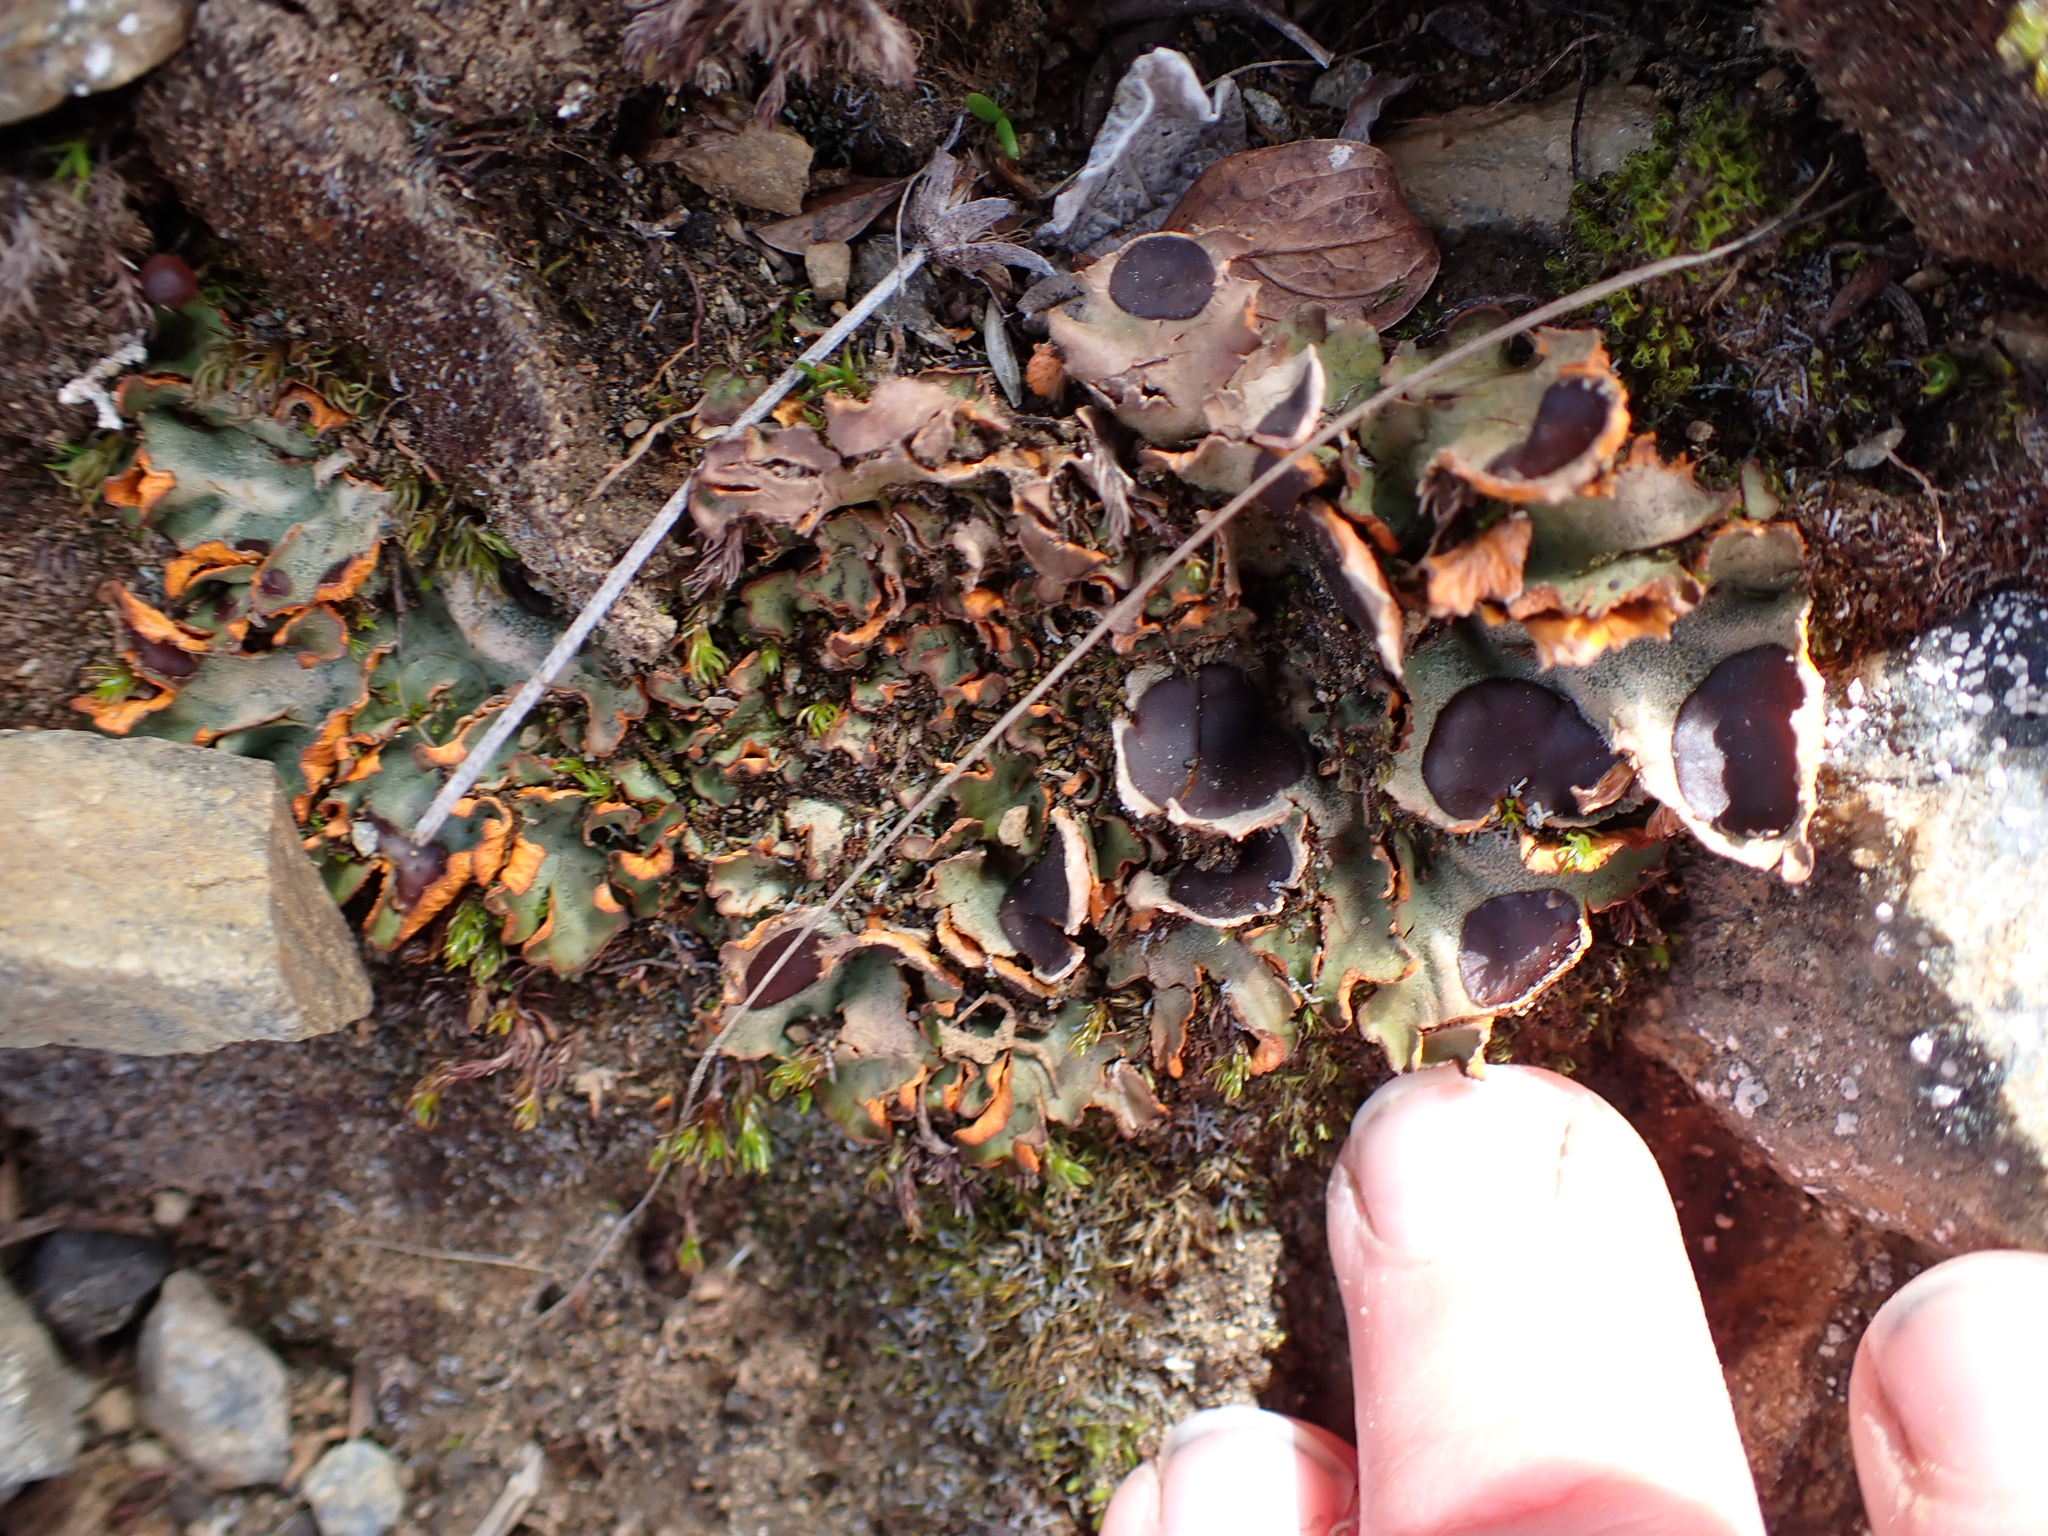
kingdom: Fungi
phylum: Ascomycota
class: Lecanoromycetes
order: Peltigerales
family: Peltigeraceae
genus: Solorina
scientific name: Solorina crocea
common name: Mountain saffron
